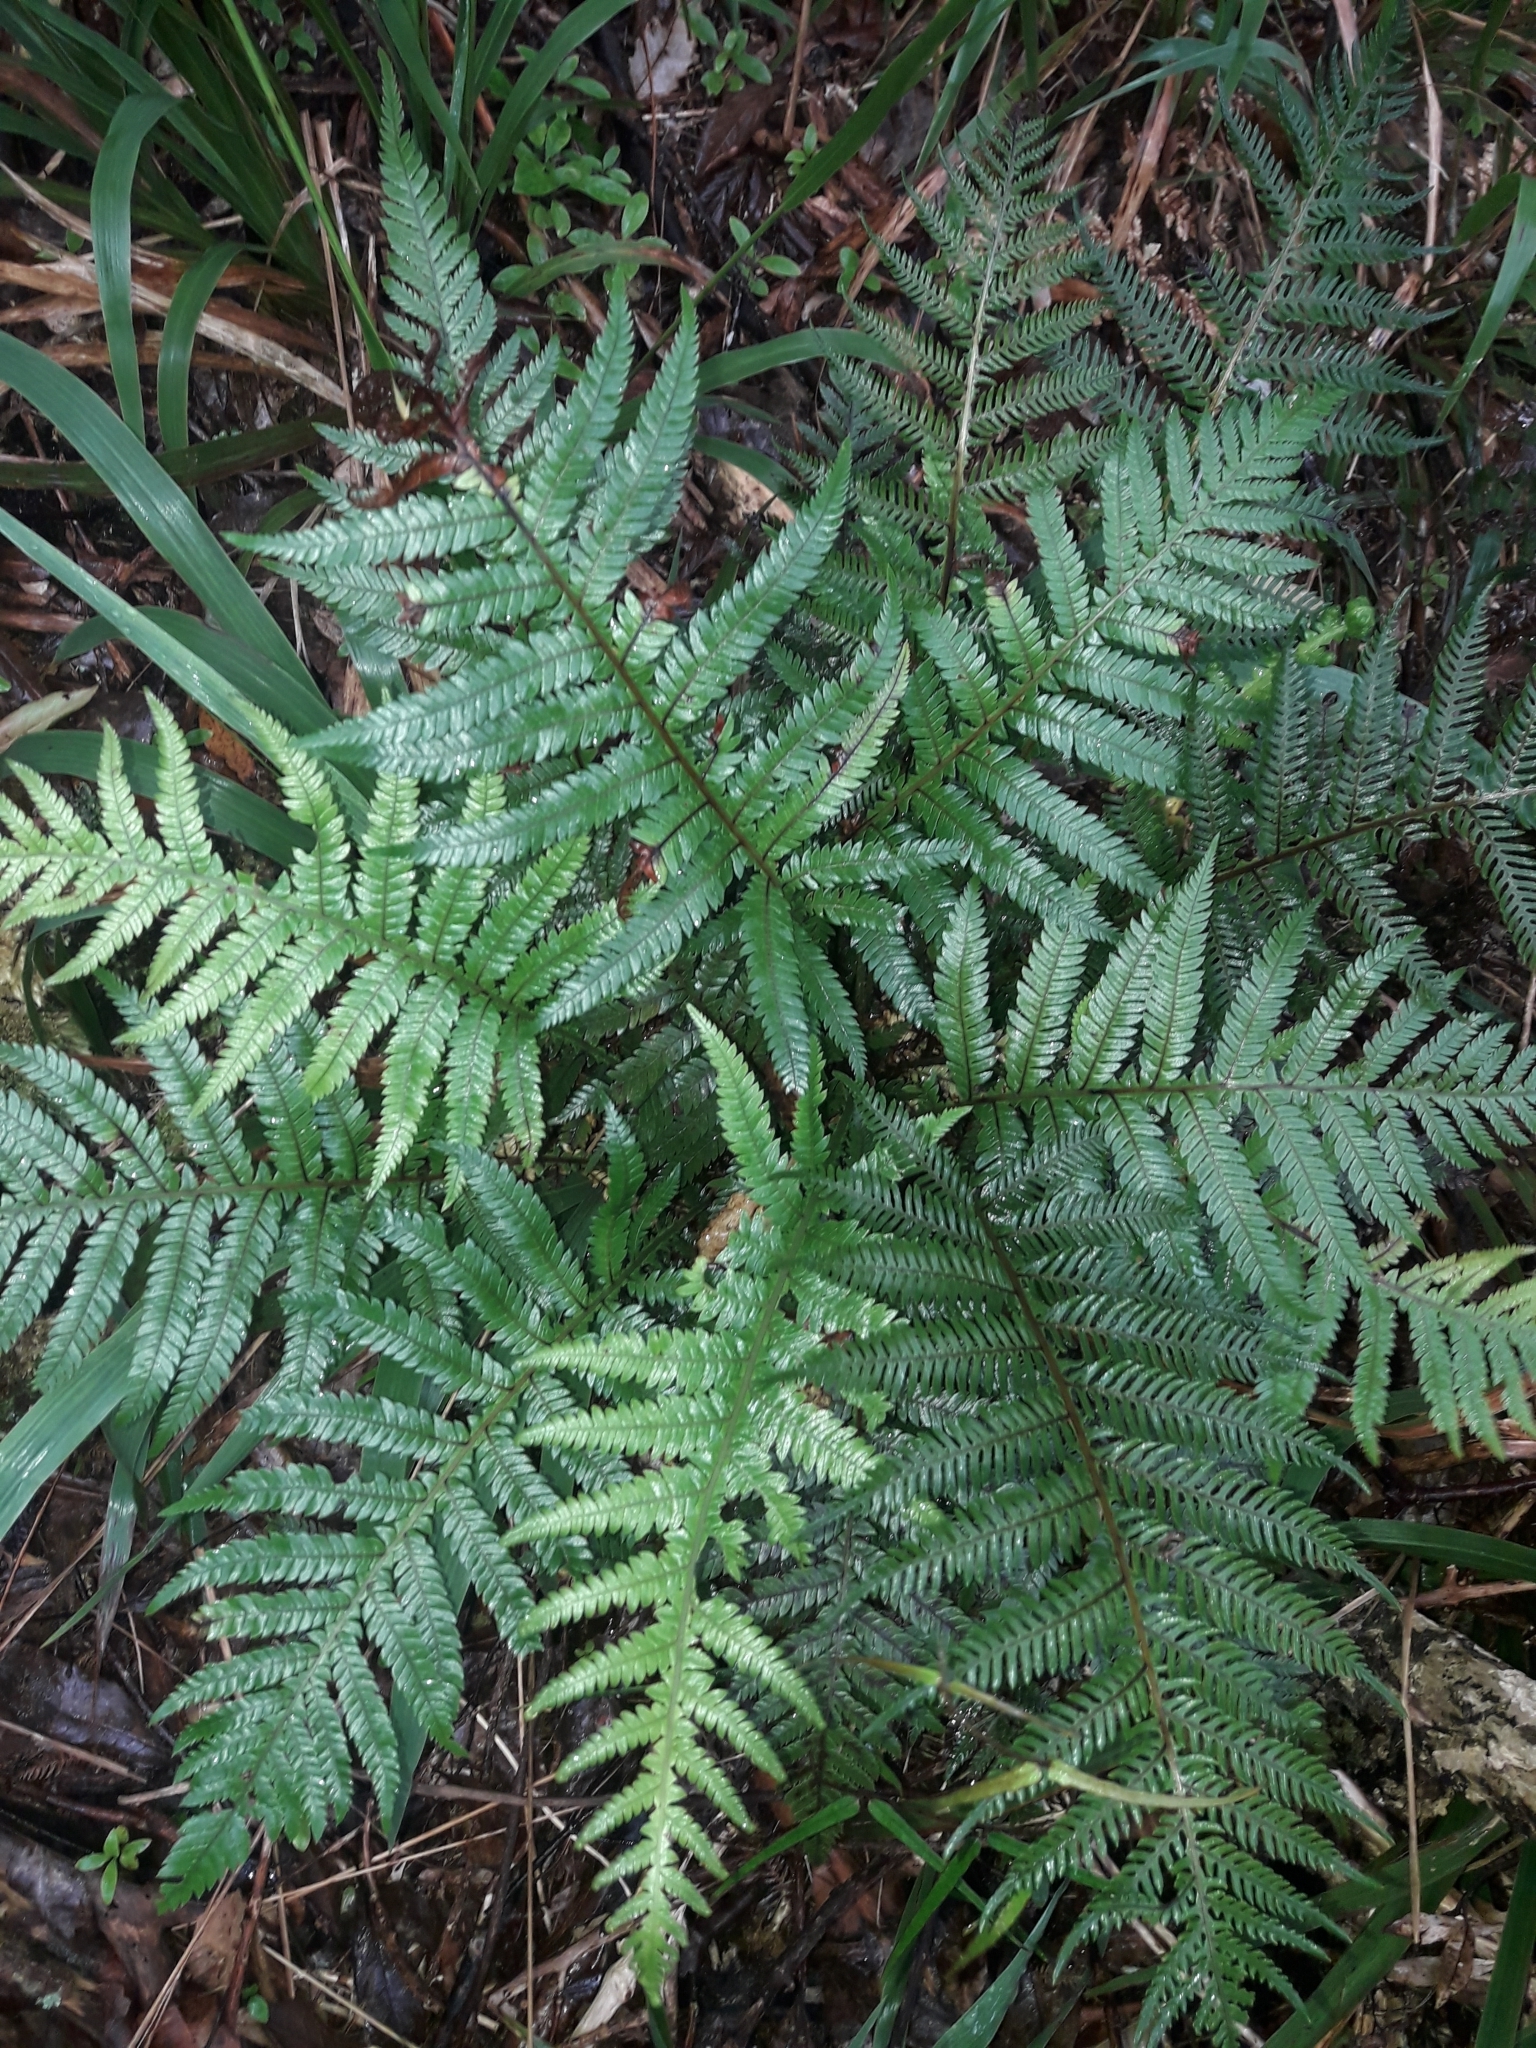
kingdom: Plantae
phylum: Tracheophyta
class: Polypodiopsida
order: Polypodiales
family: Blechnaceae
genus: Diploblechnum
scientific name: Diploblechnum fraseri
